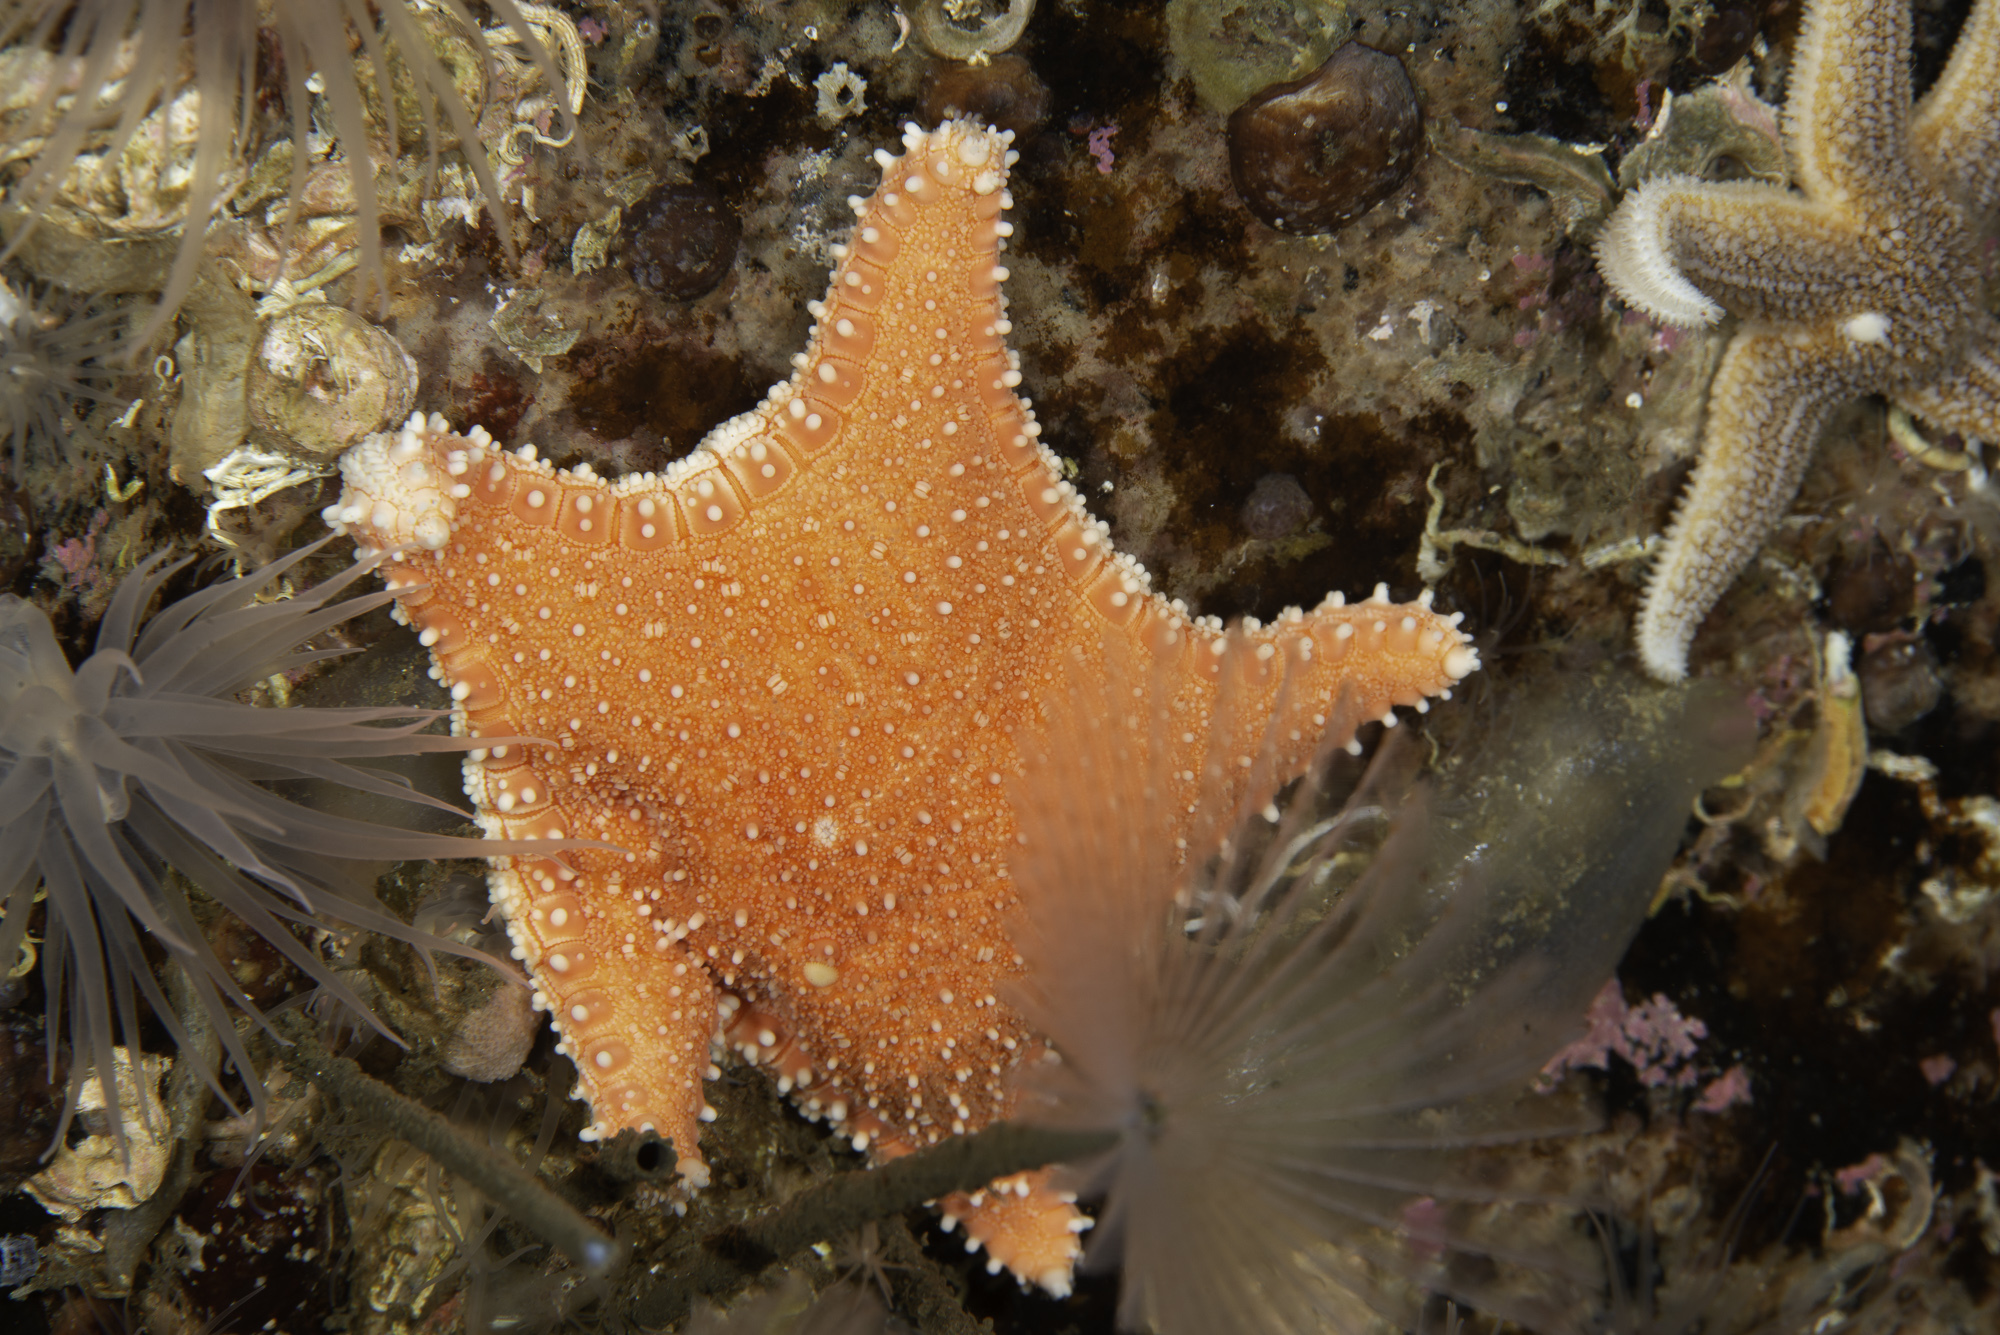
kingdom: Animalia
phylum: Echinodermata
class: Asteroidea
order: Valvatida
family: Goniasteridae
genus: Hippasteria
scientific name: Hippasteria phrygiana
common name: Arctic cushion star
